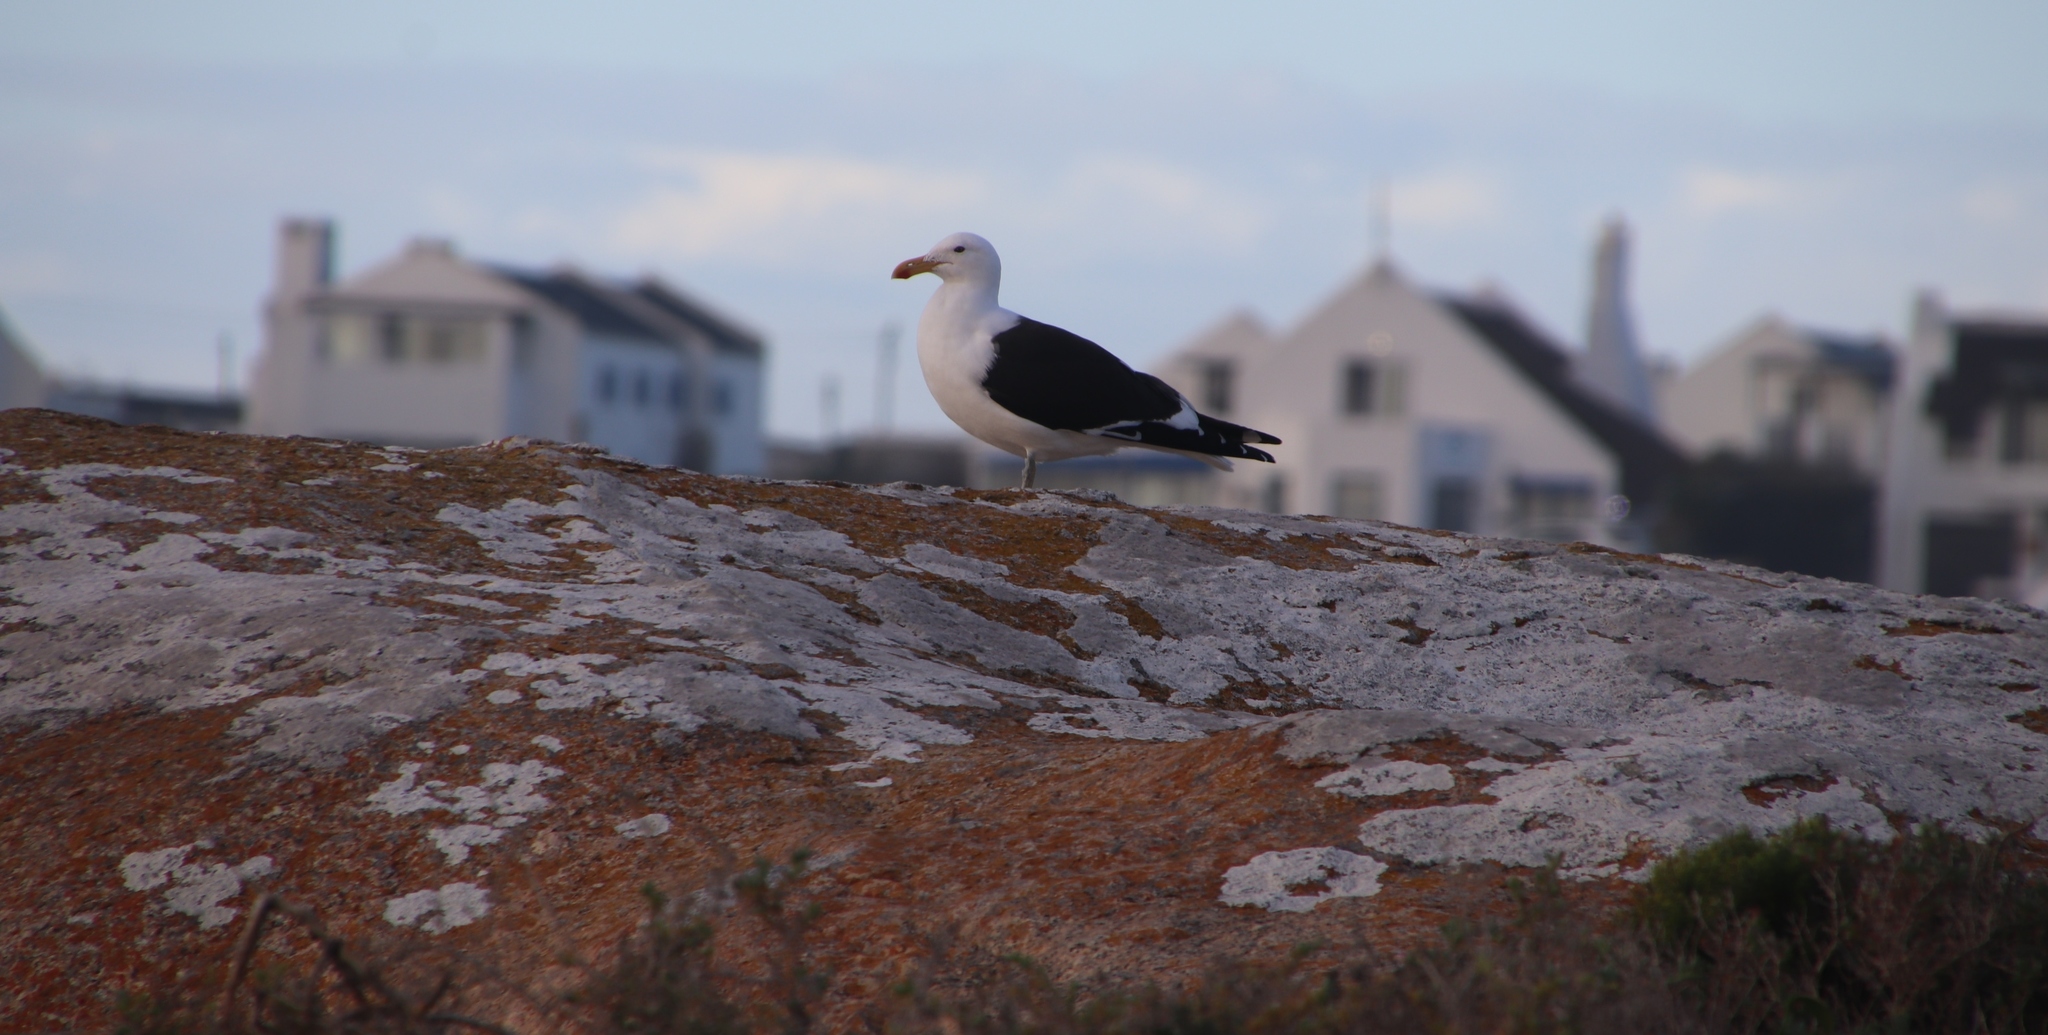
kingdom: Animalia
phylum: Chordata
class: Aves
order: Charadriiformes
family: Laridae
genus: Larus
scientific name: Larus dominicanus
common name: Kelp gull
